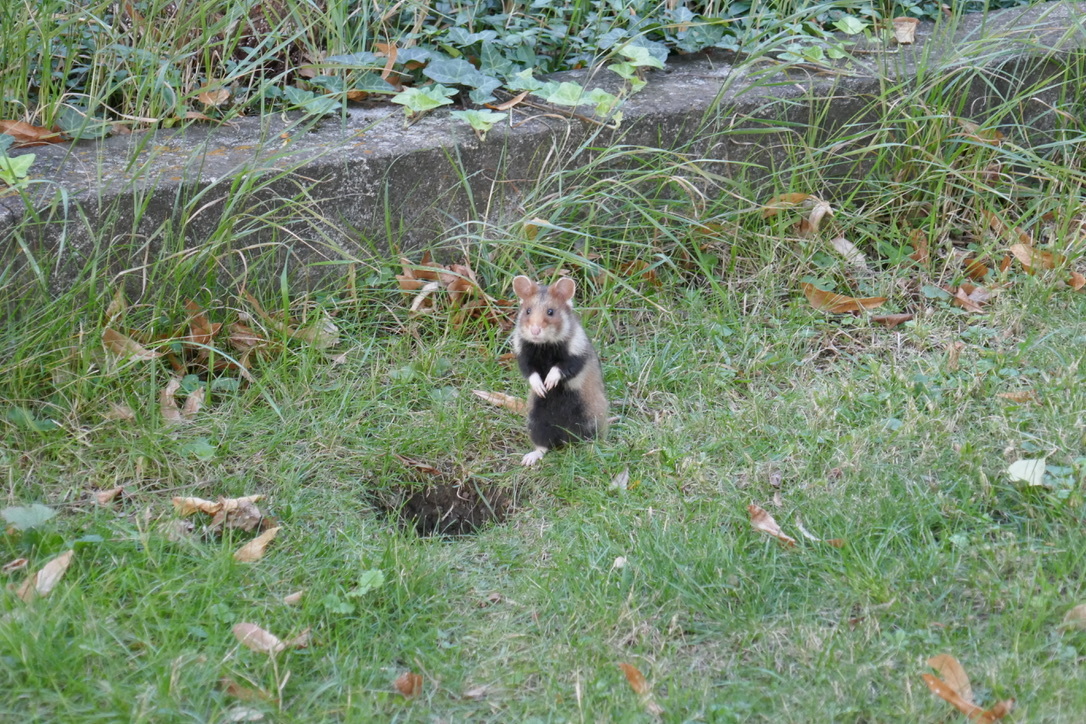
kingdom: Animalia
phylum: Chordata
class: Mammalia
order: Rodentia
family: Cricetidae
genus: Cricetus
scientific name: Cricetus cricetus
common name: Common hamster
